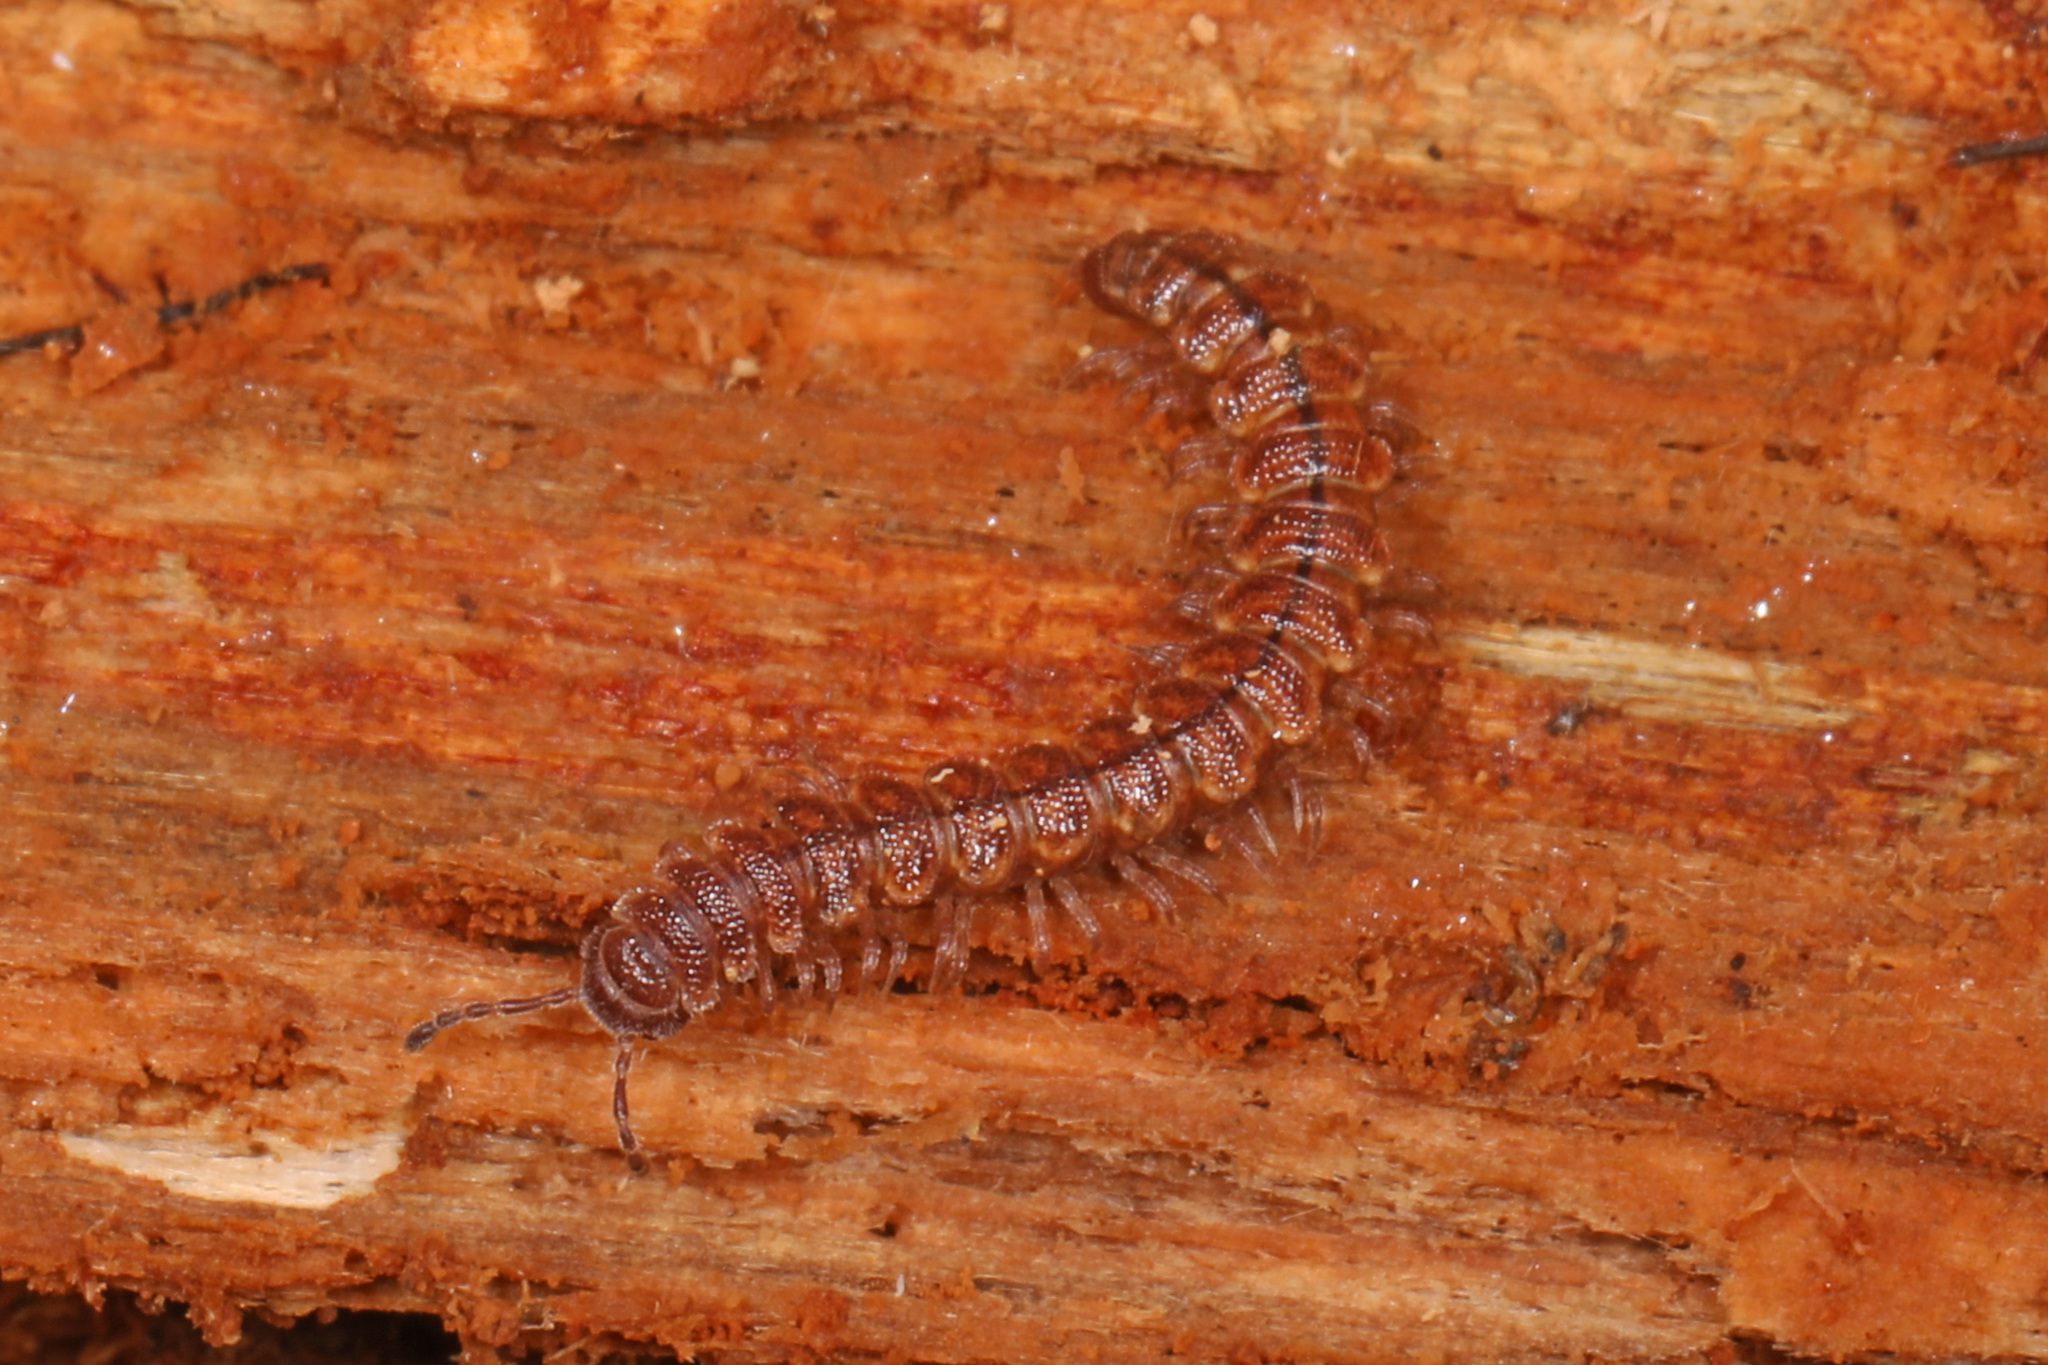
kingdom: Animalia
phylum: Arthropoda
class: Diplopoda
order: Polydesmida
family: Polydesmidae
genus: Scytonotus
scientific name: Scytonotus granulatus
